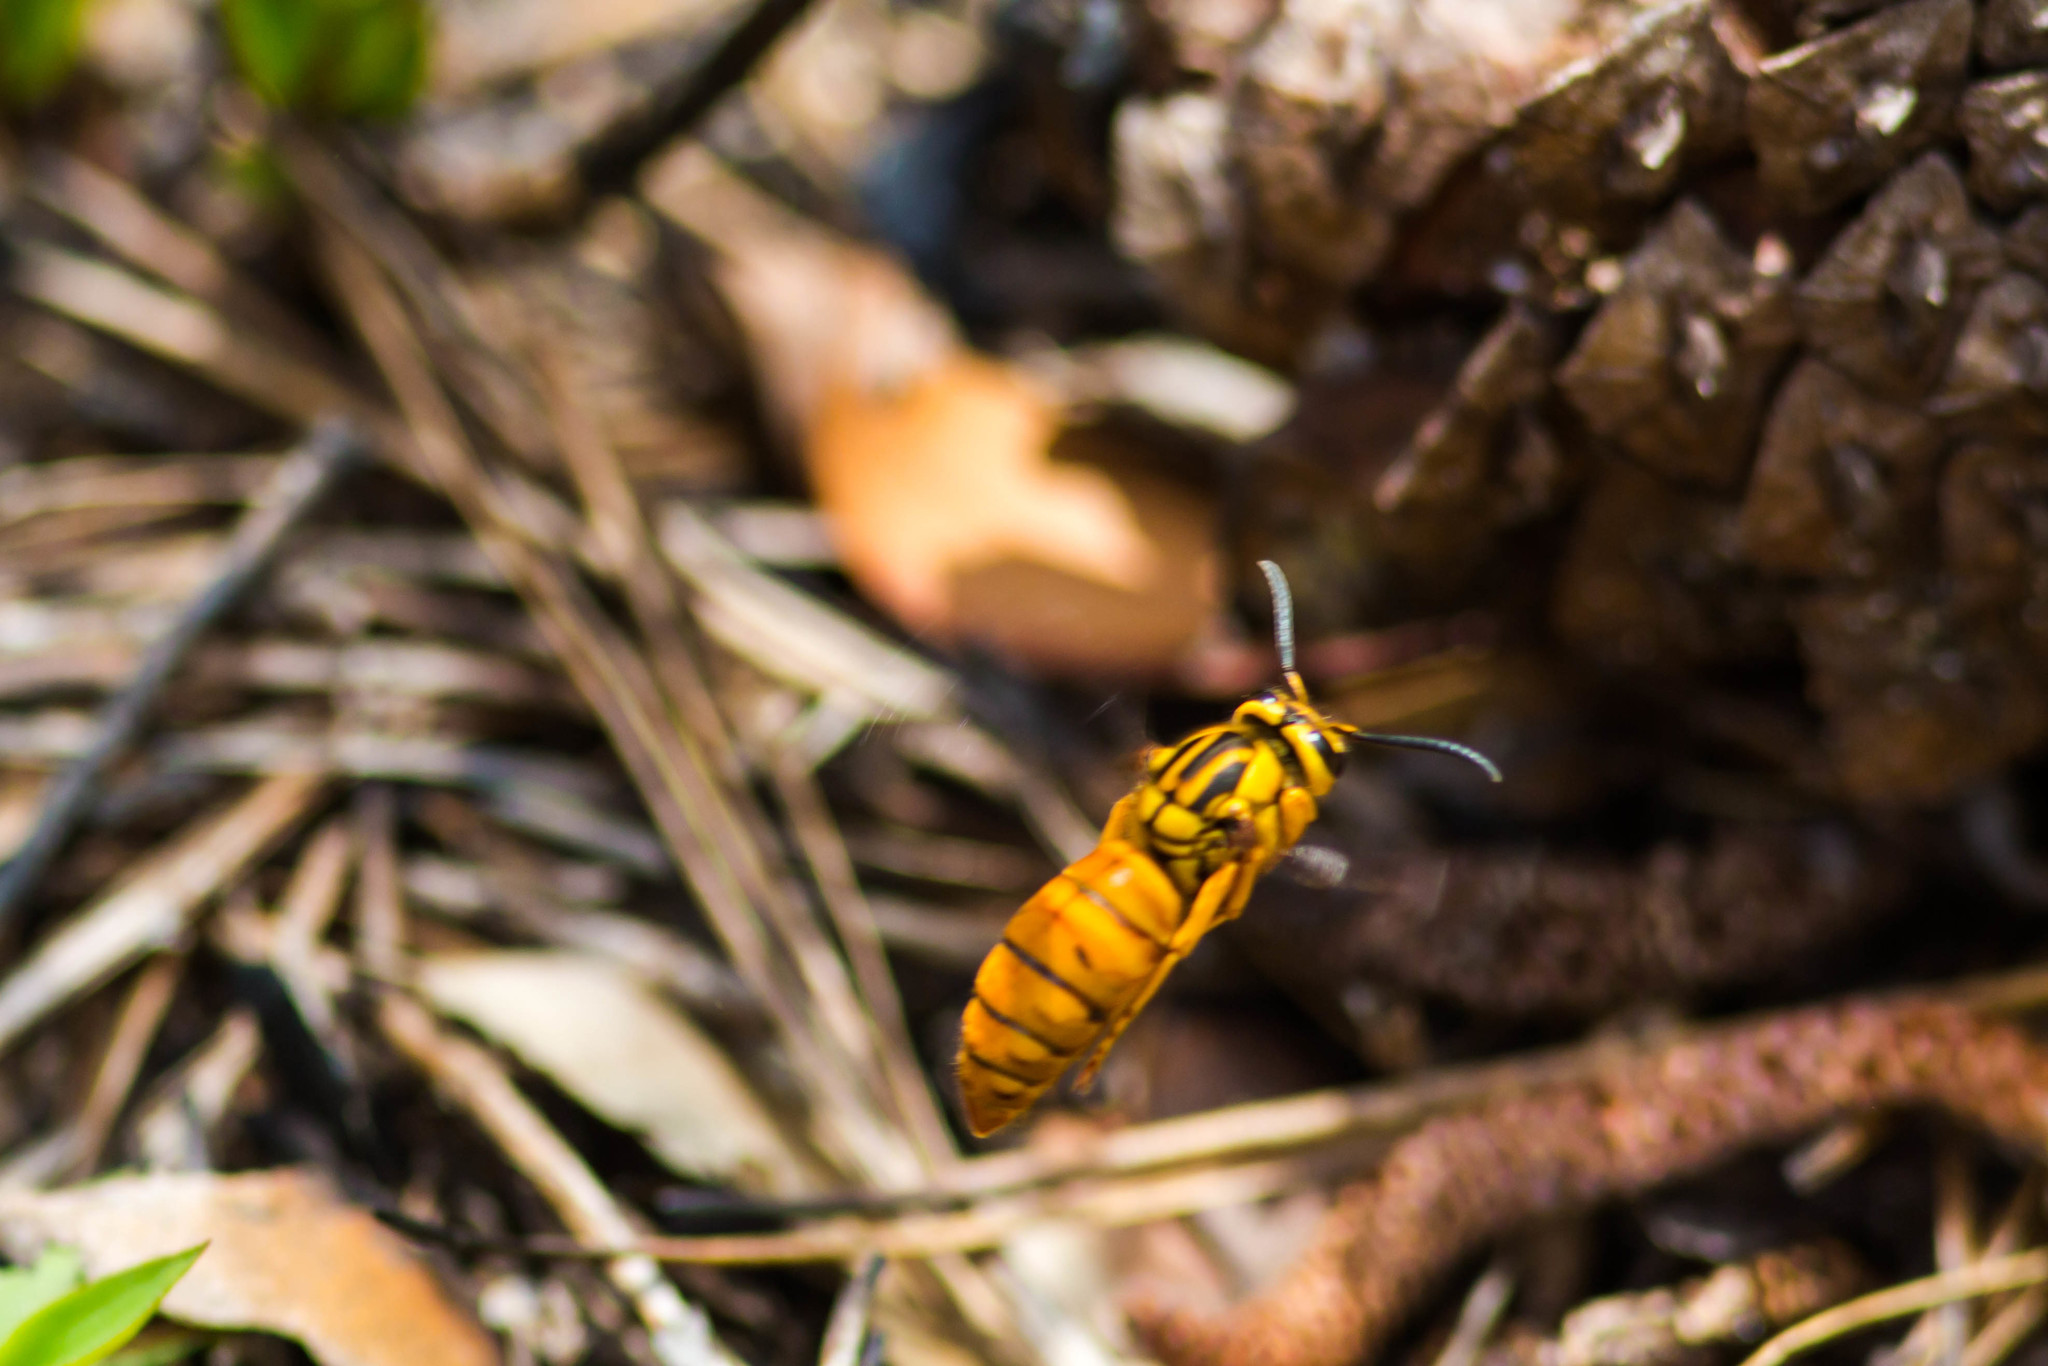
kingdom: Animalia
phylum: Arthropoda
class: Insecta
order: Hymenoptera
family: Vespidae
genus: Vespula
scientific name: Vespula squamosa
